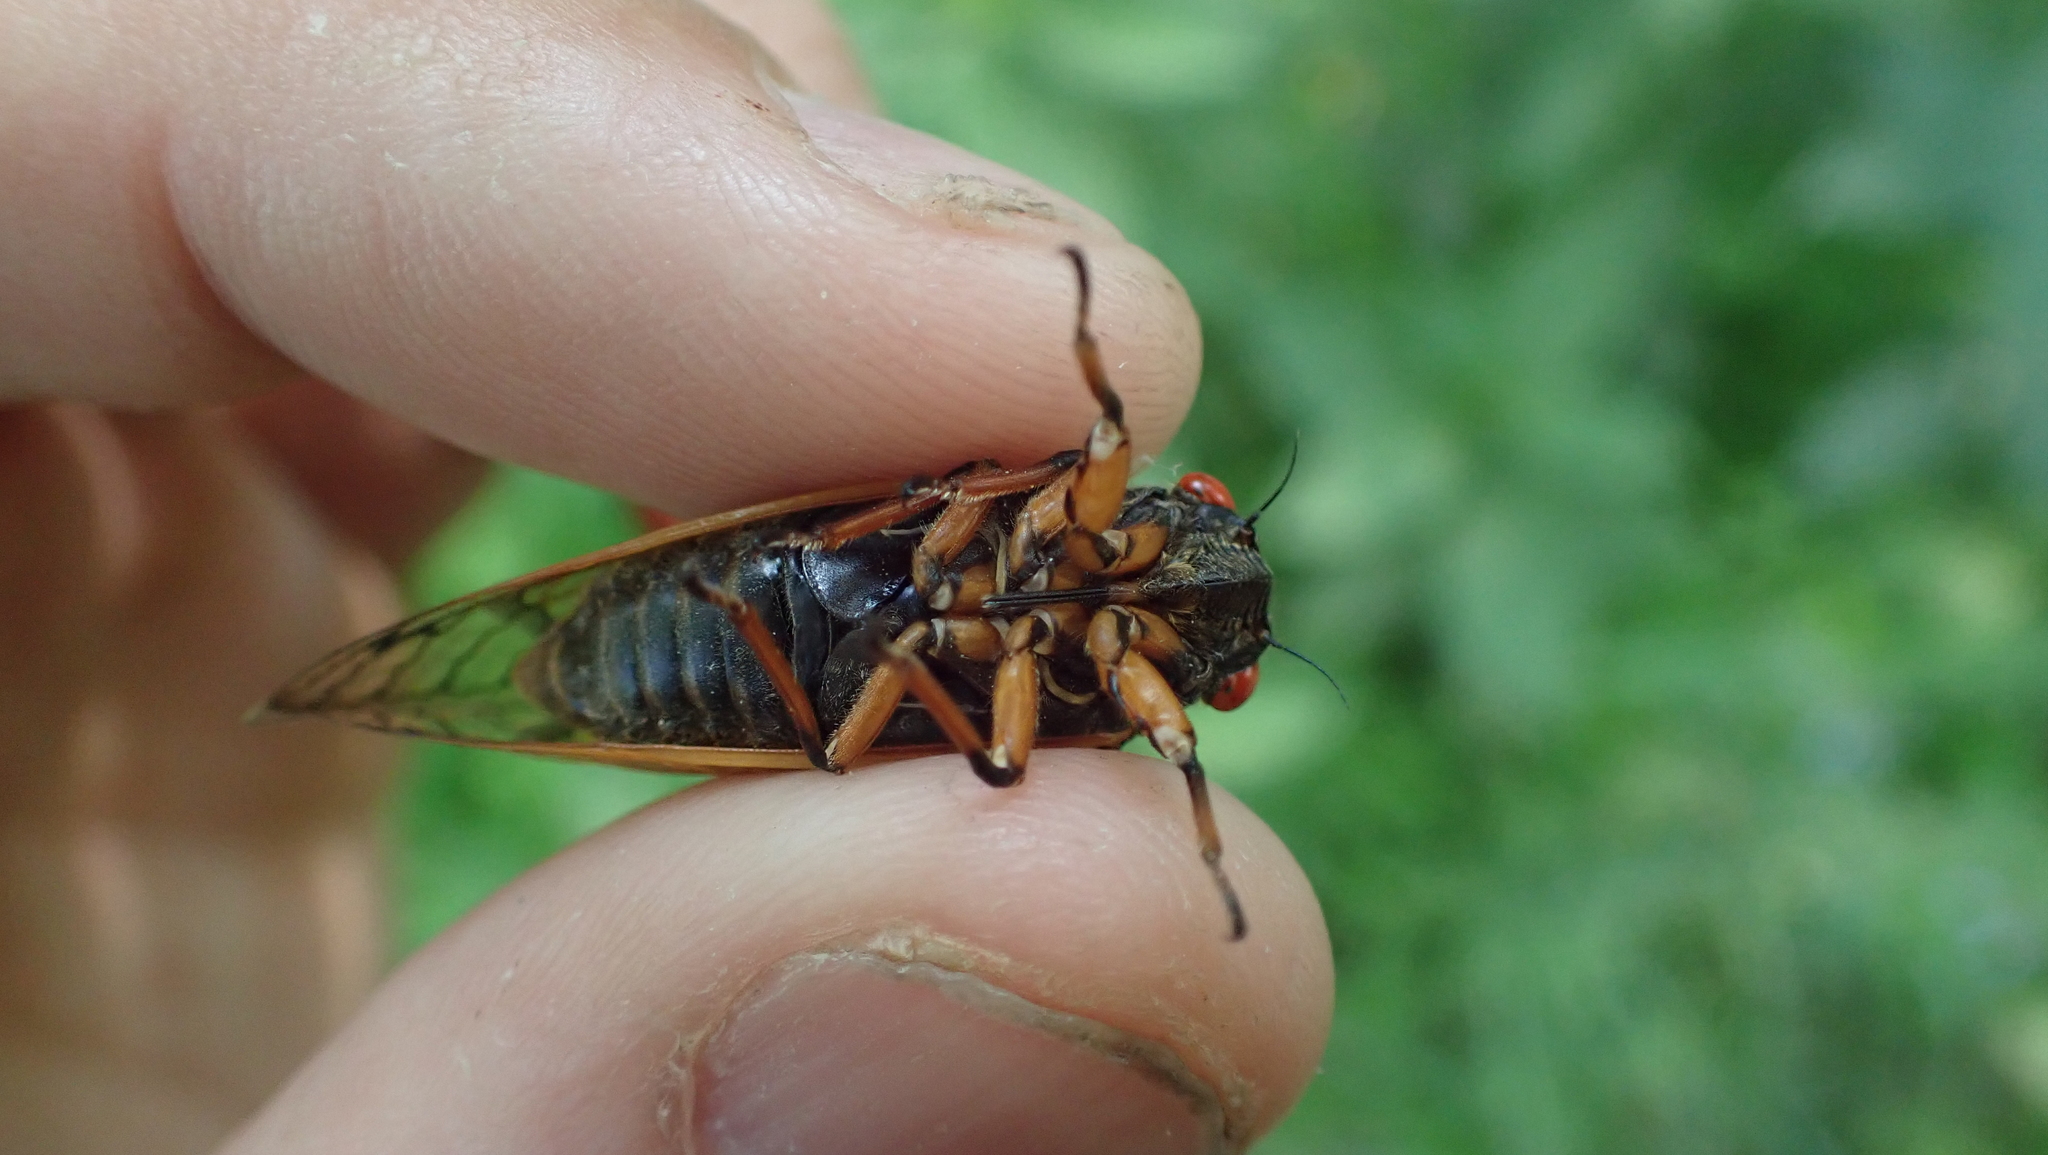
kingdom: Animalia
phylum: Arthropoda
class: Insecta
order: Hemiptera
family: Cicadidae
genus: Magicicada
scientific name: Magicicada cassini
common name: Cassin's 17-year cicada
